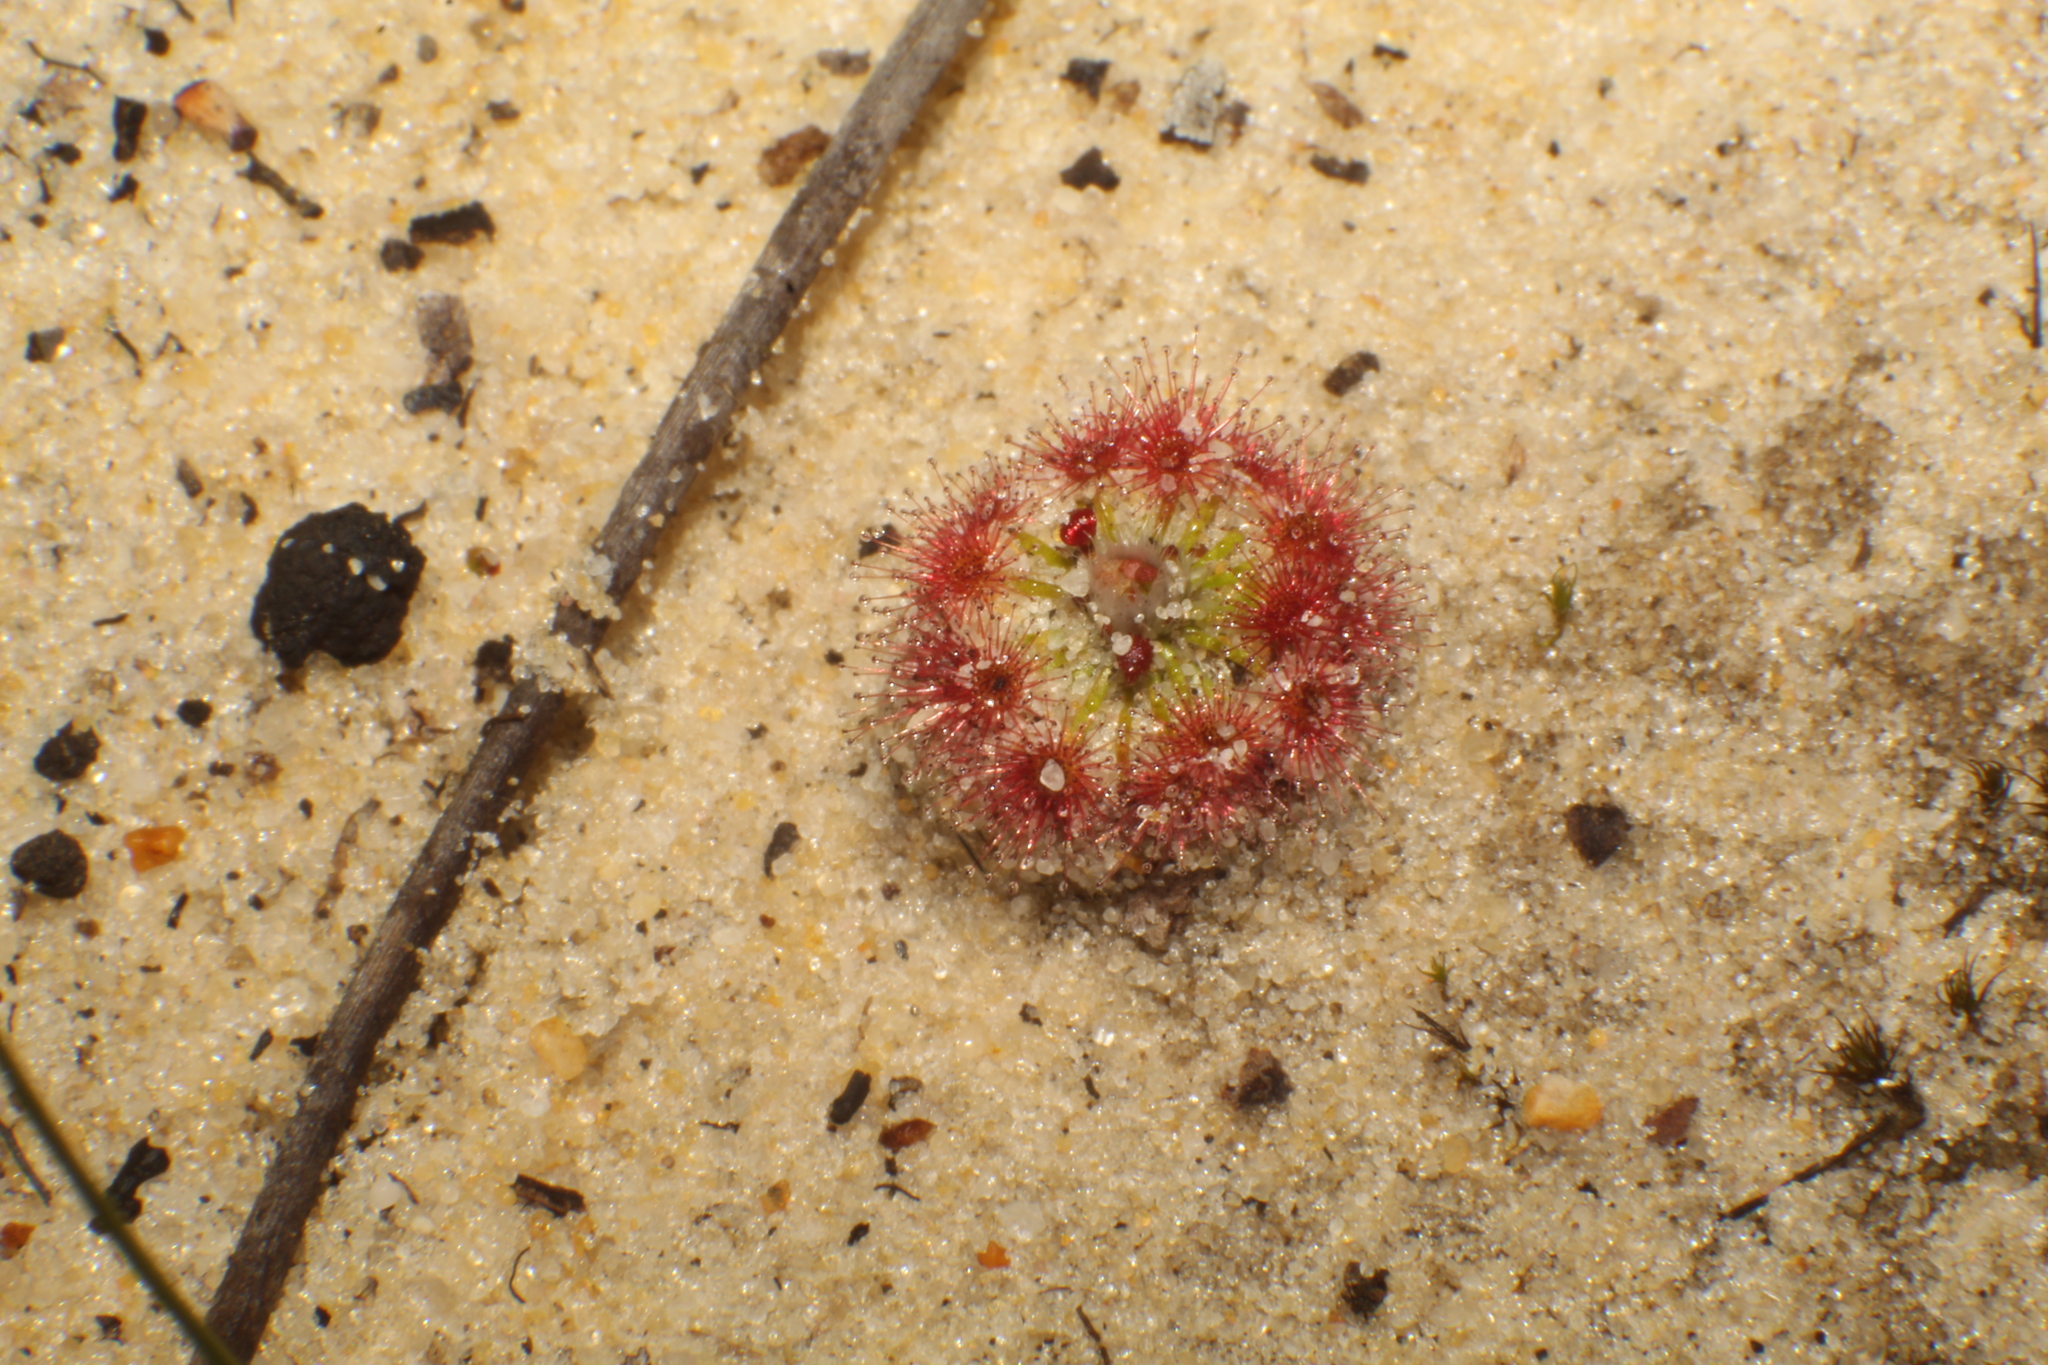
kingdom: Plantae
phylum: Tracheophyta
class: Magnoliopsida
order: Caryophyllales
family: Droseraceae
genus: Drosera
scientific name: Drosera paleacea
